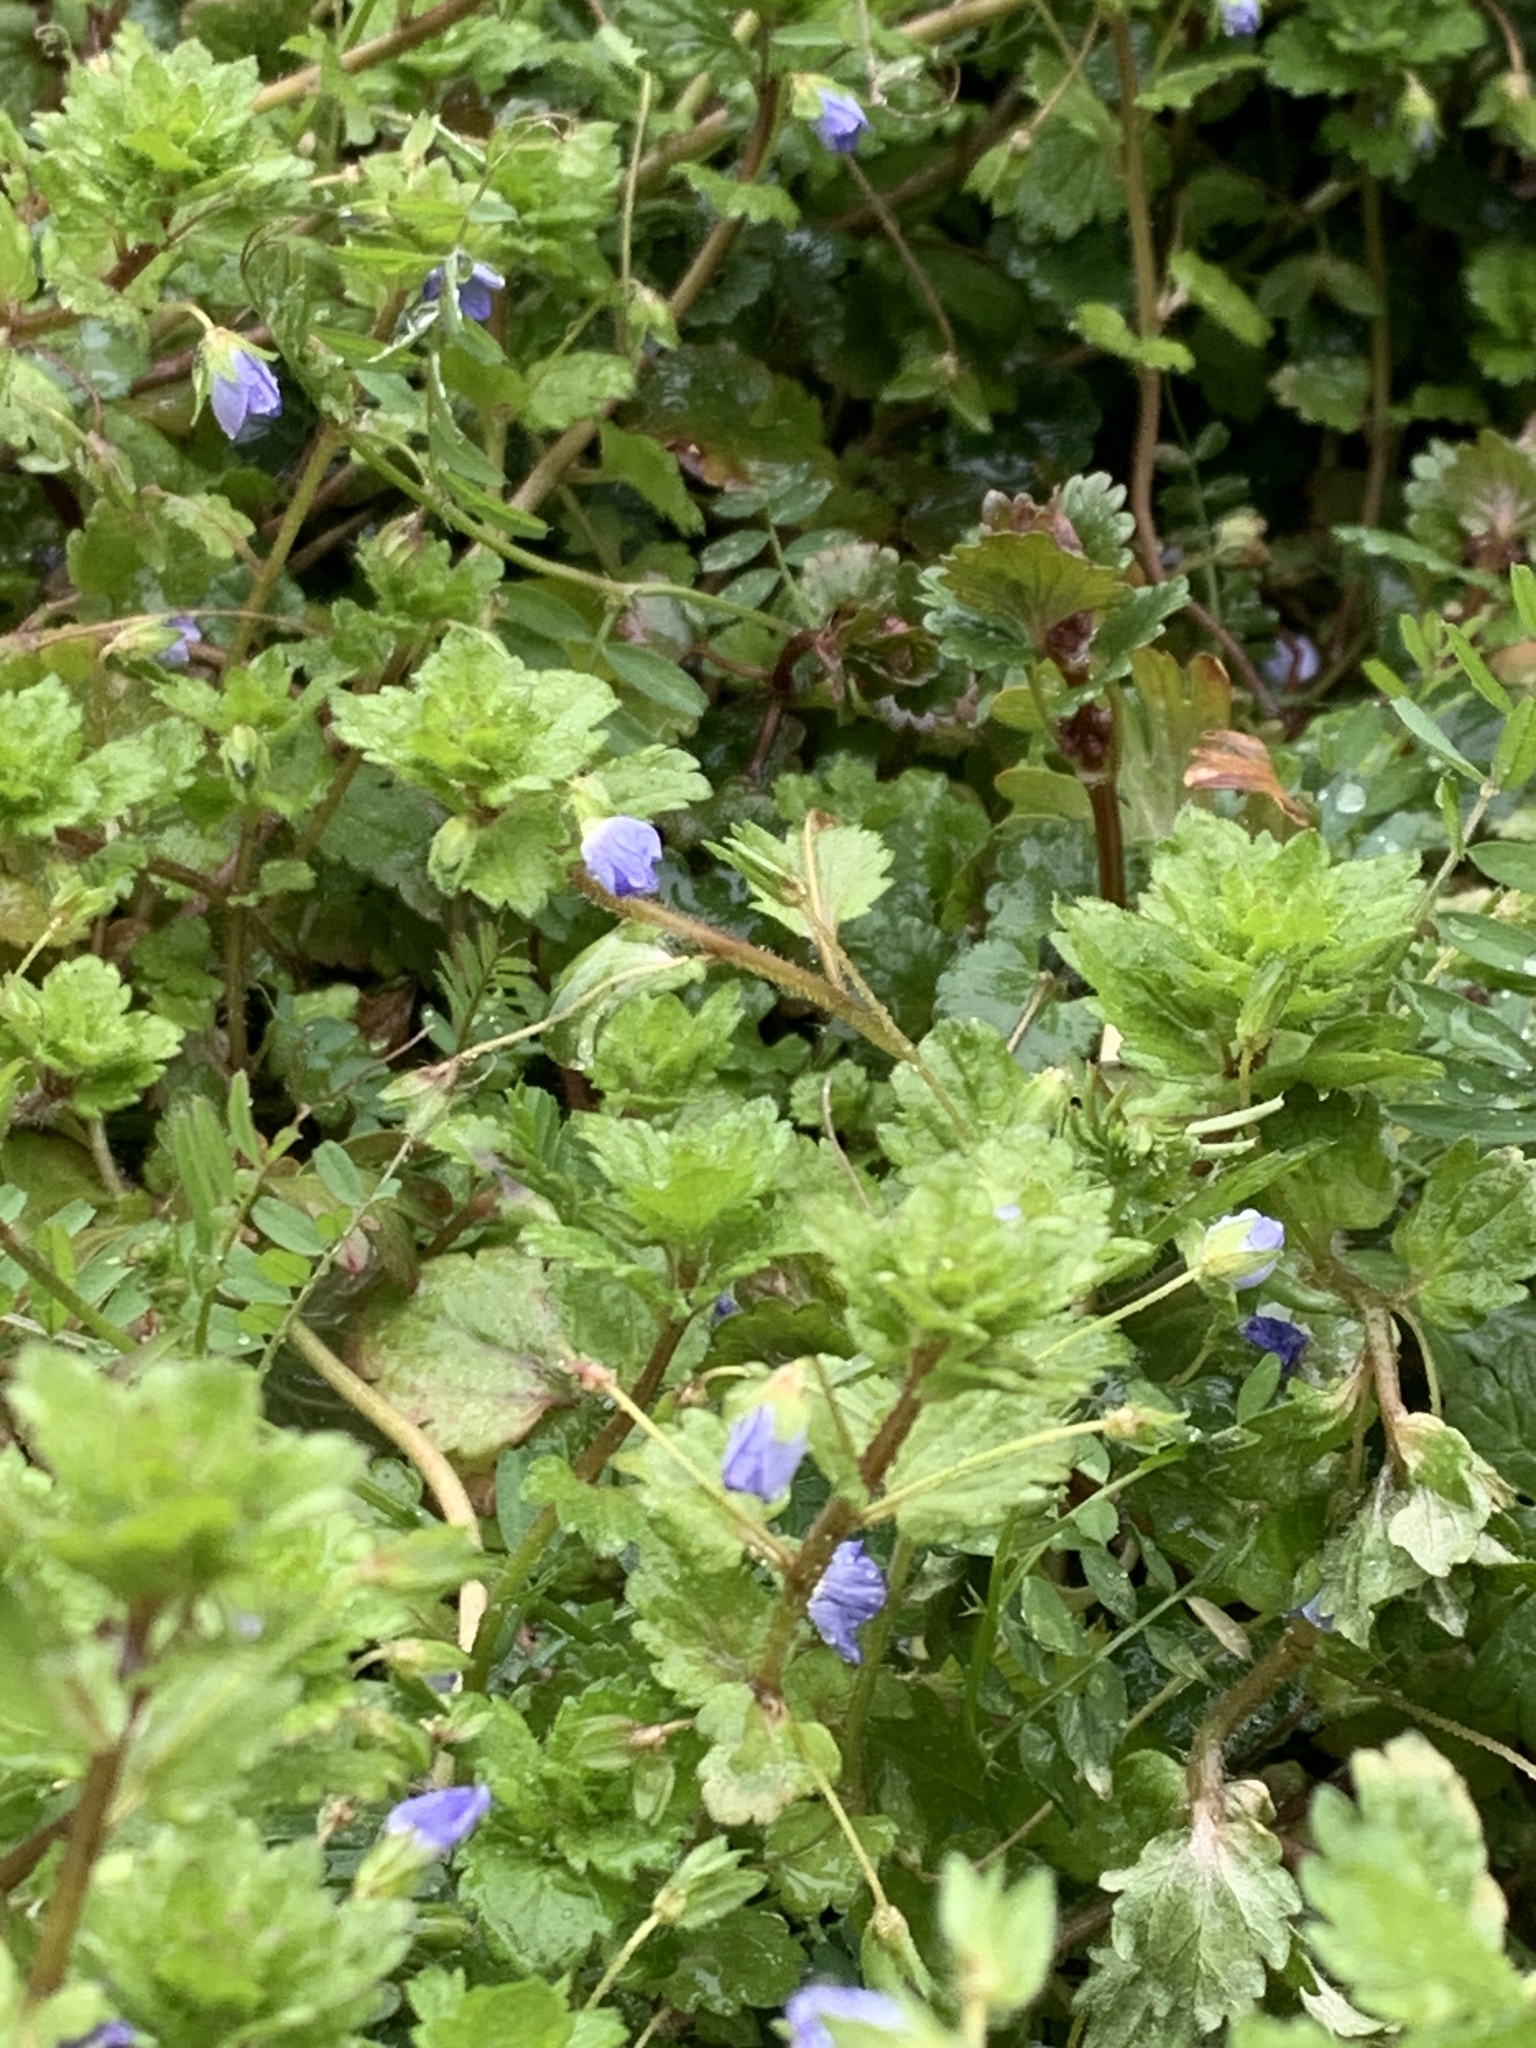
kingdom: Plantae
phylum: Tracheophyta
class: Magnoliopsida
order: Lamiales
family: Plantaginaceae
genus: Veronica
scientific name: Veronica persica
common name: Common field-speedwell
